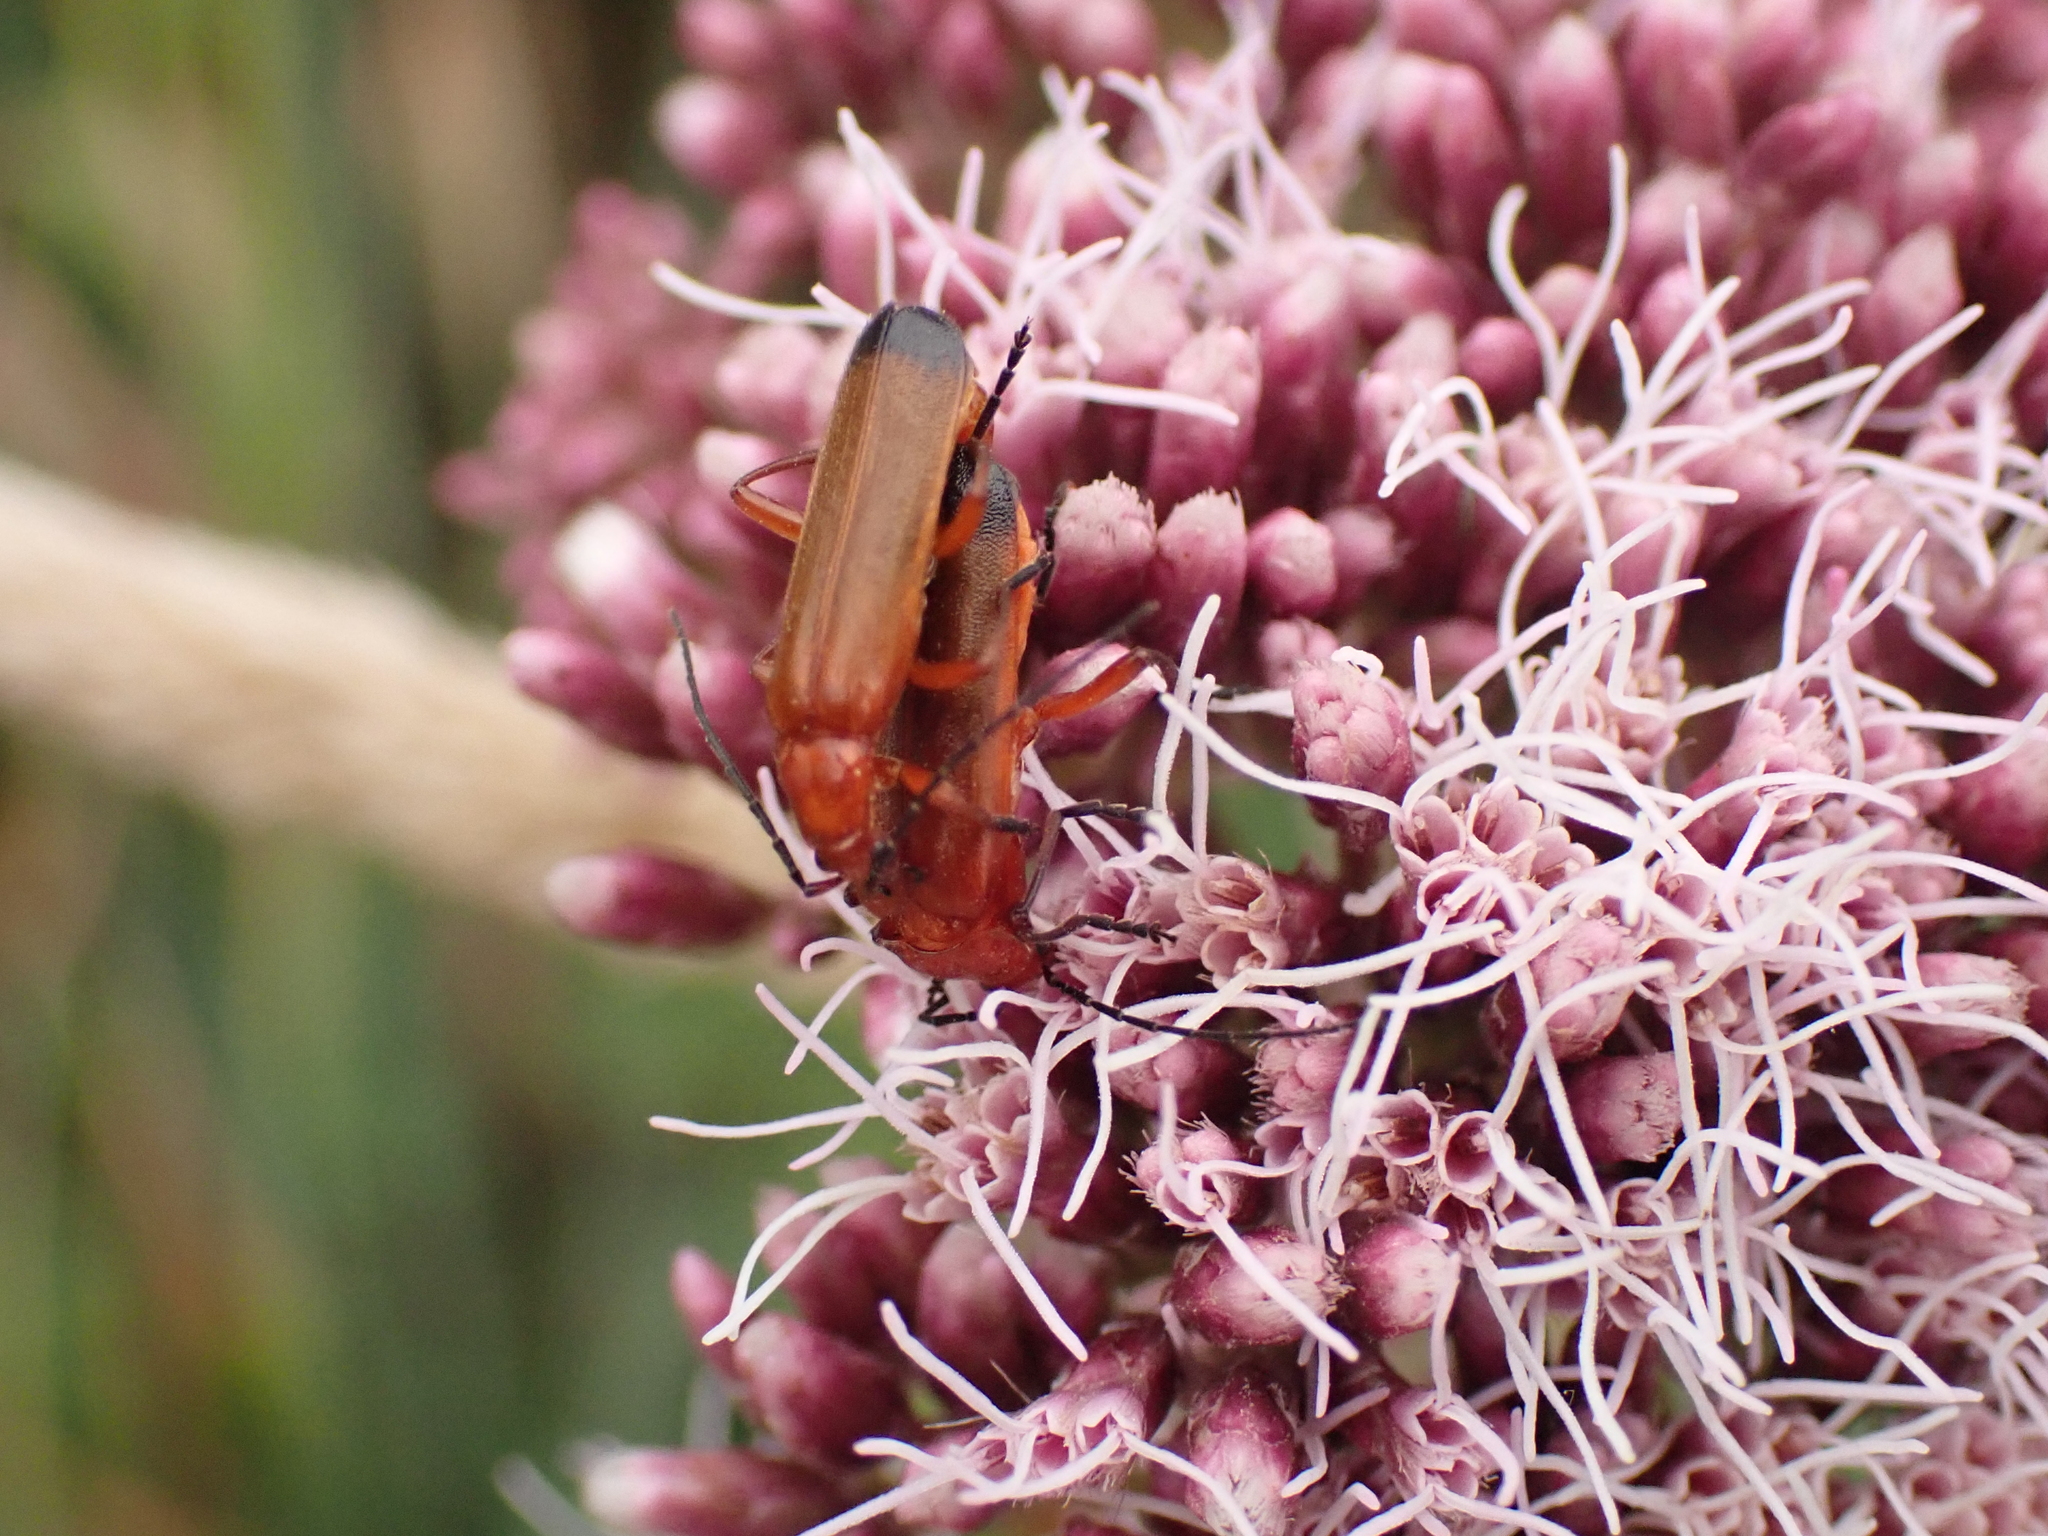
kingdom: Animalia
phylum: Arthropoda
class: Insecta
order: Coleoptera
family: Cantharidae
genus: Rhagonycha
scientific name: Rhagonycha fulva
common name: Common red soldier beetle
